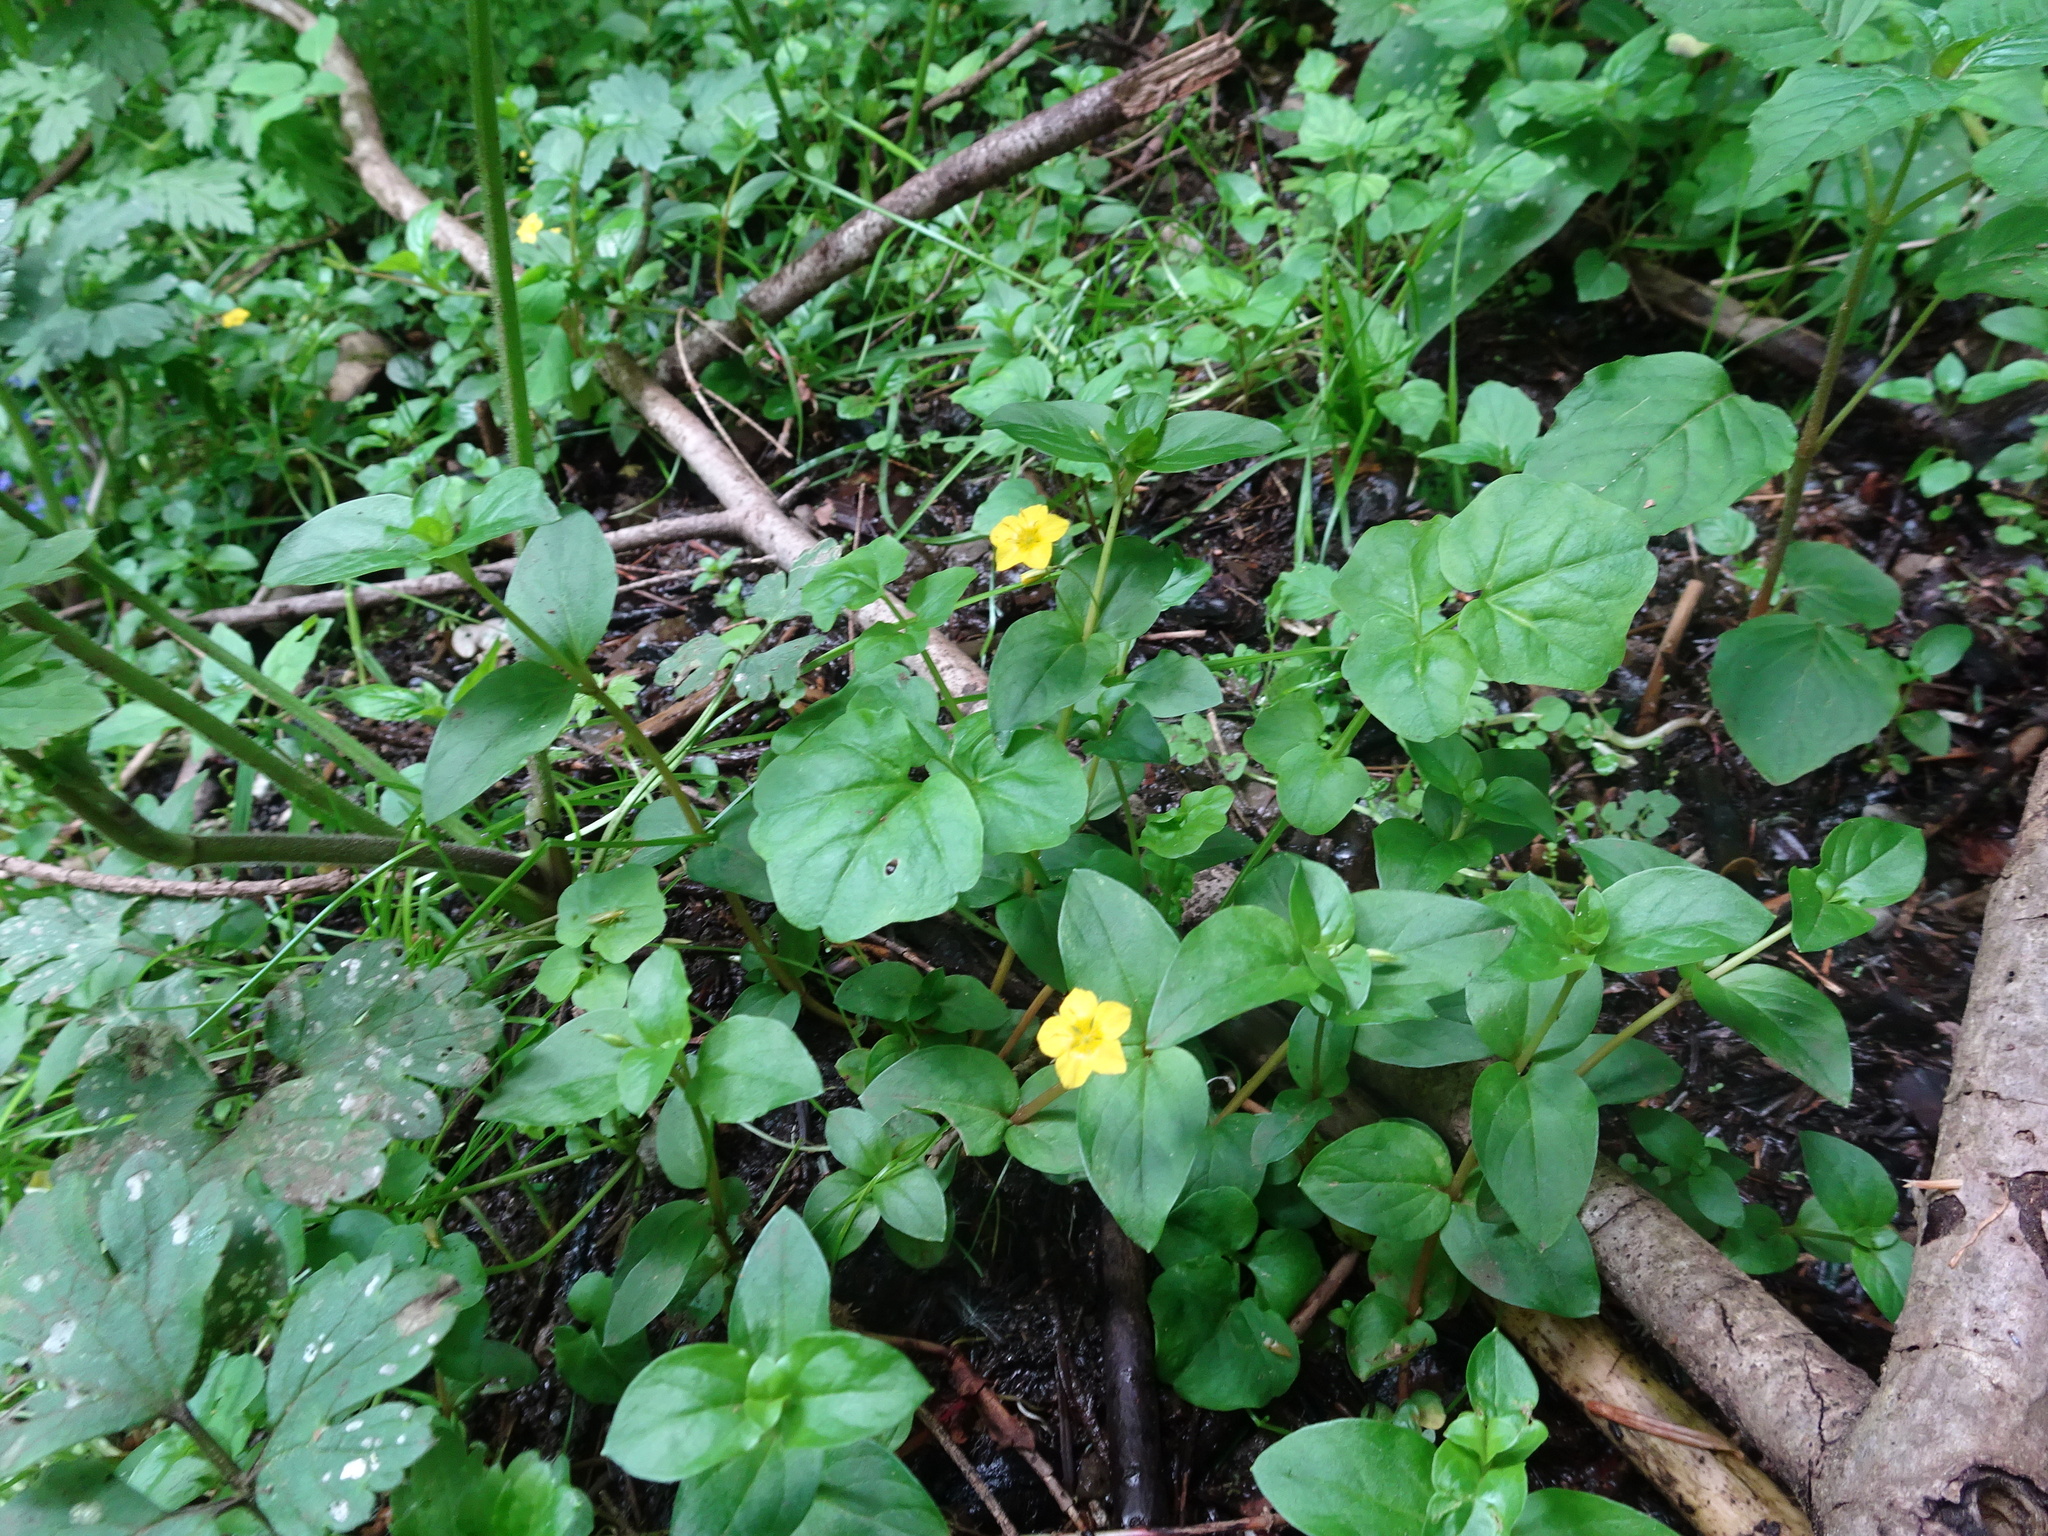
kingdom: Plantae
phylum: Tracheophyta
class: Magnoliopsida
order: Ericales
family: Primulaceae
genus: Lysimachia
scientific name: Lysimachia nemorum
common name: Yellow pimpernel
